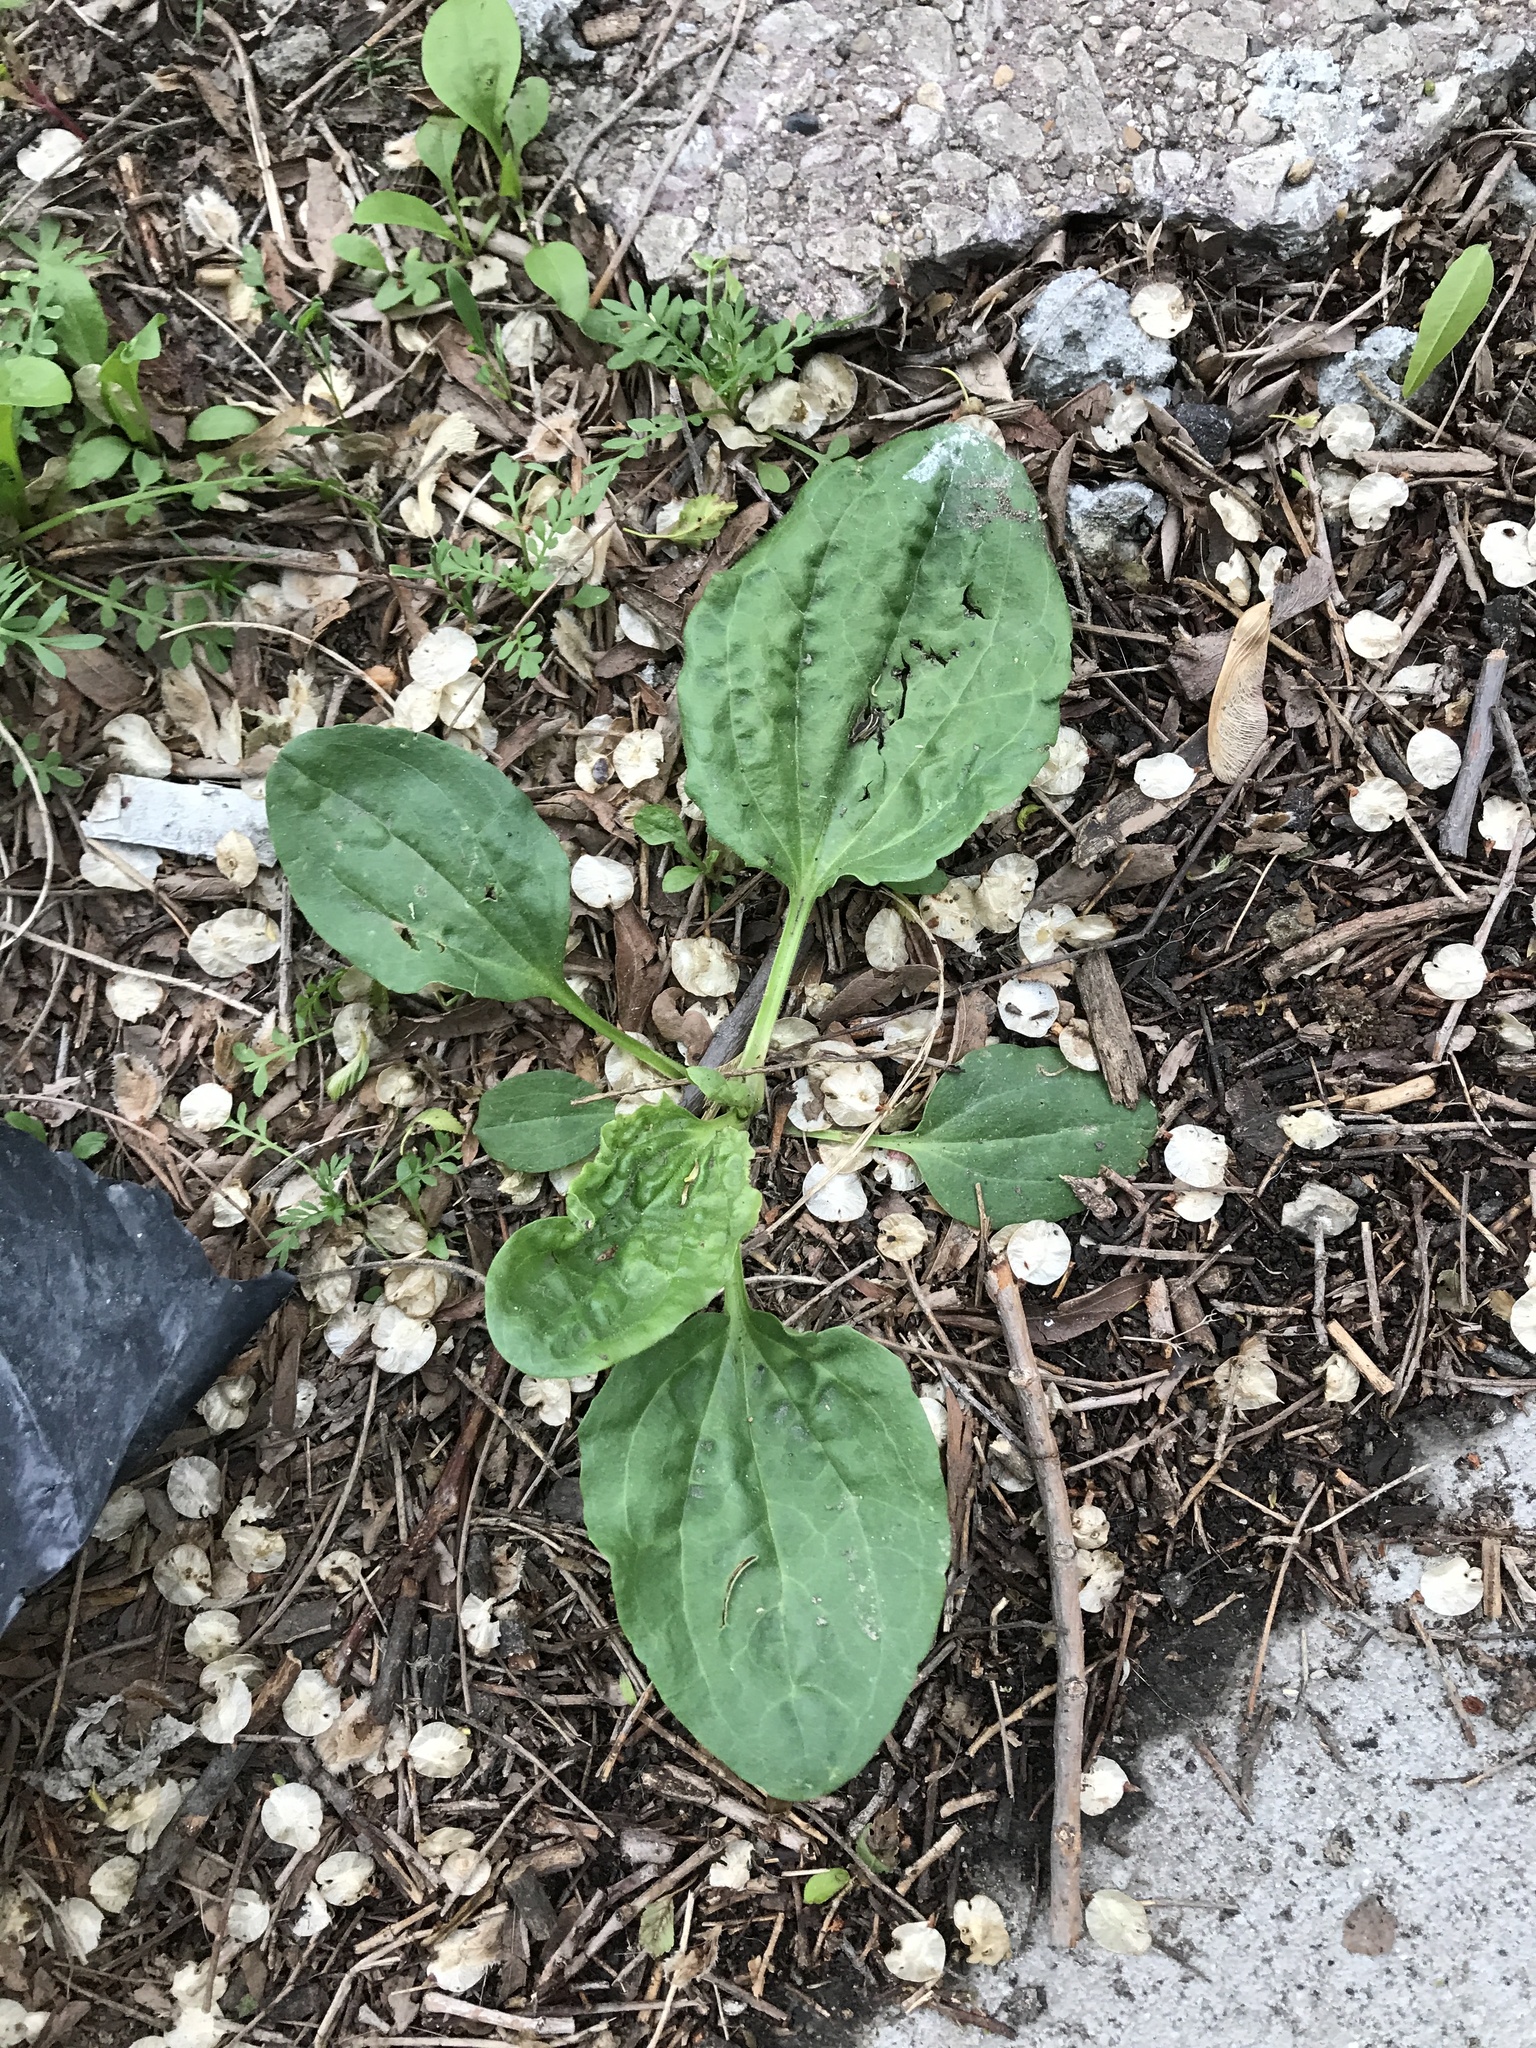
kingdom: Plantae
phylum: Tracheophyta
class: Magnoliopsida
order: Lamiales
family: Plantaginaceae
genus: Plantago
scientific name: Plantago major
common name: Common plantain
